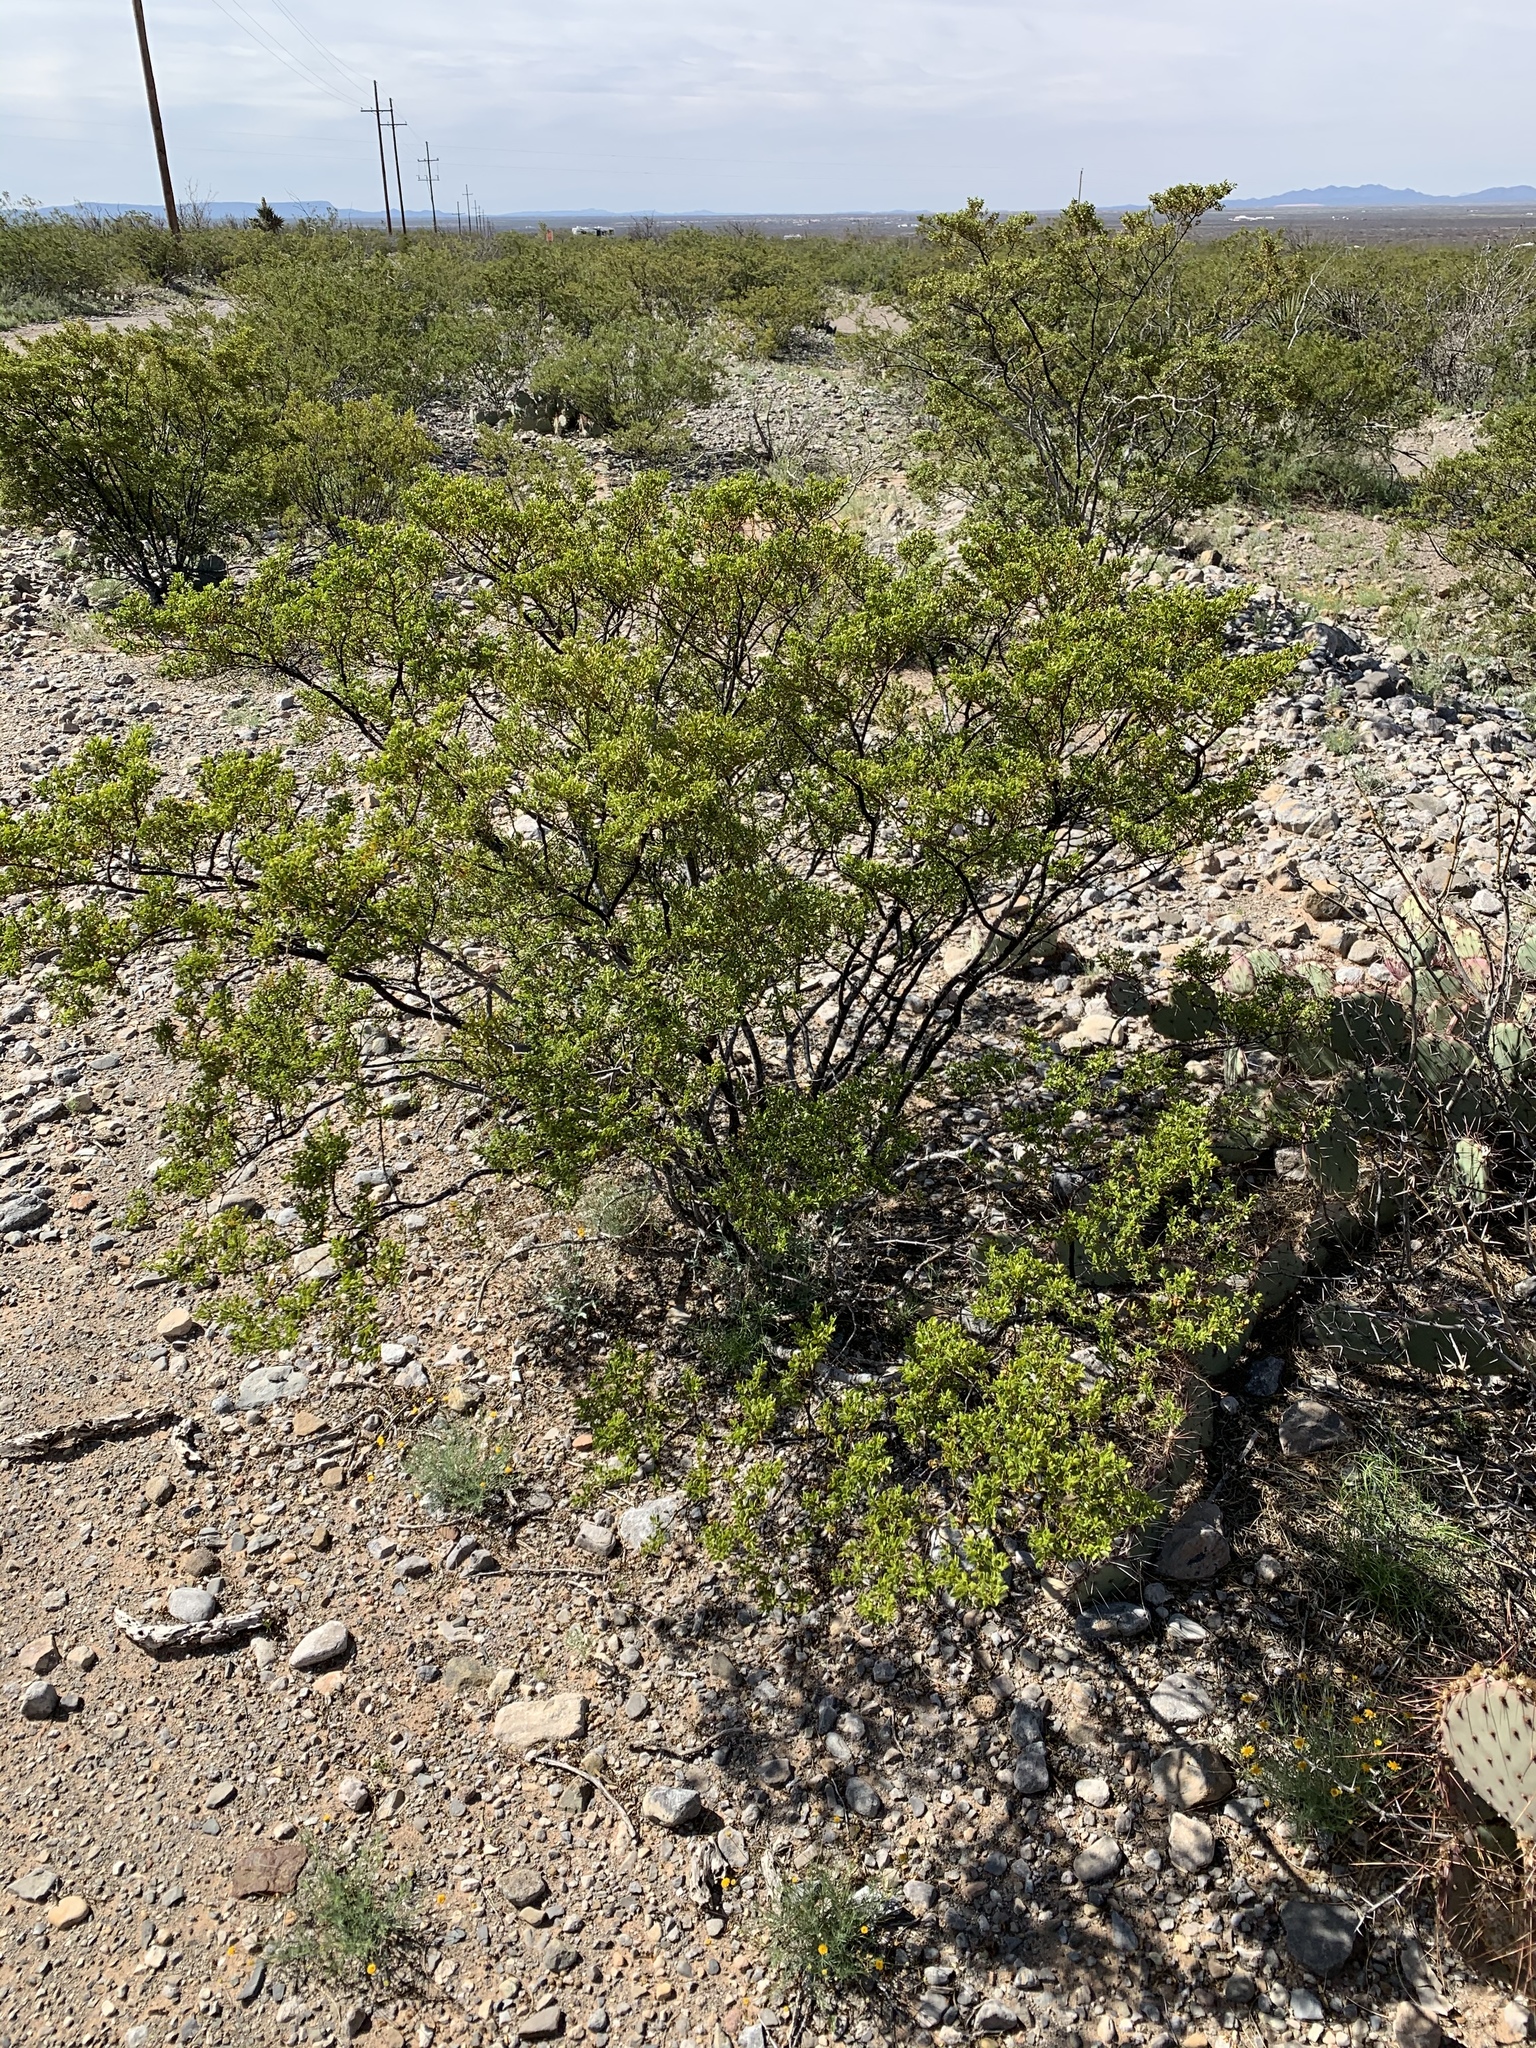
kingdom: Plantae
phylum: Tracheophyta
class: Magnoliopsida
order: Zygophyllales
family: Zygophyllaceae
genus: Larrea
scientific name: Larrea tridentata
